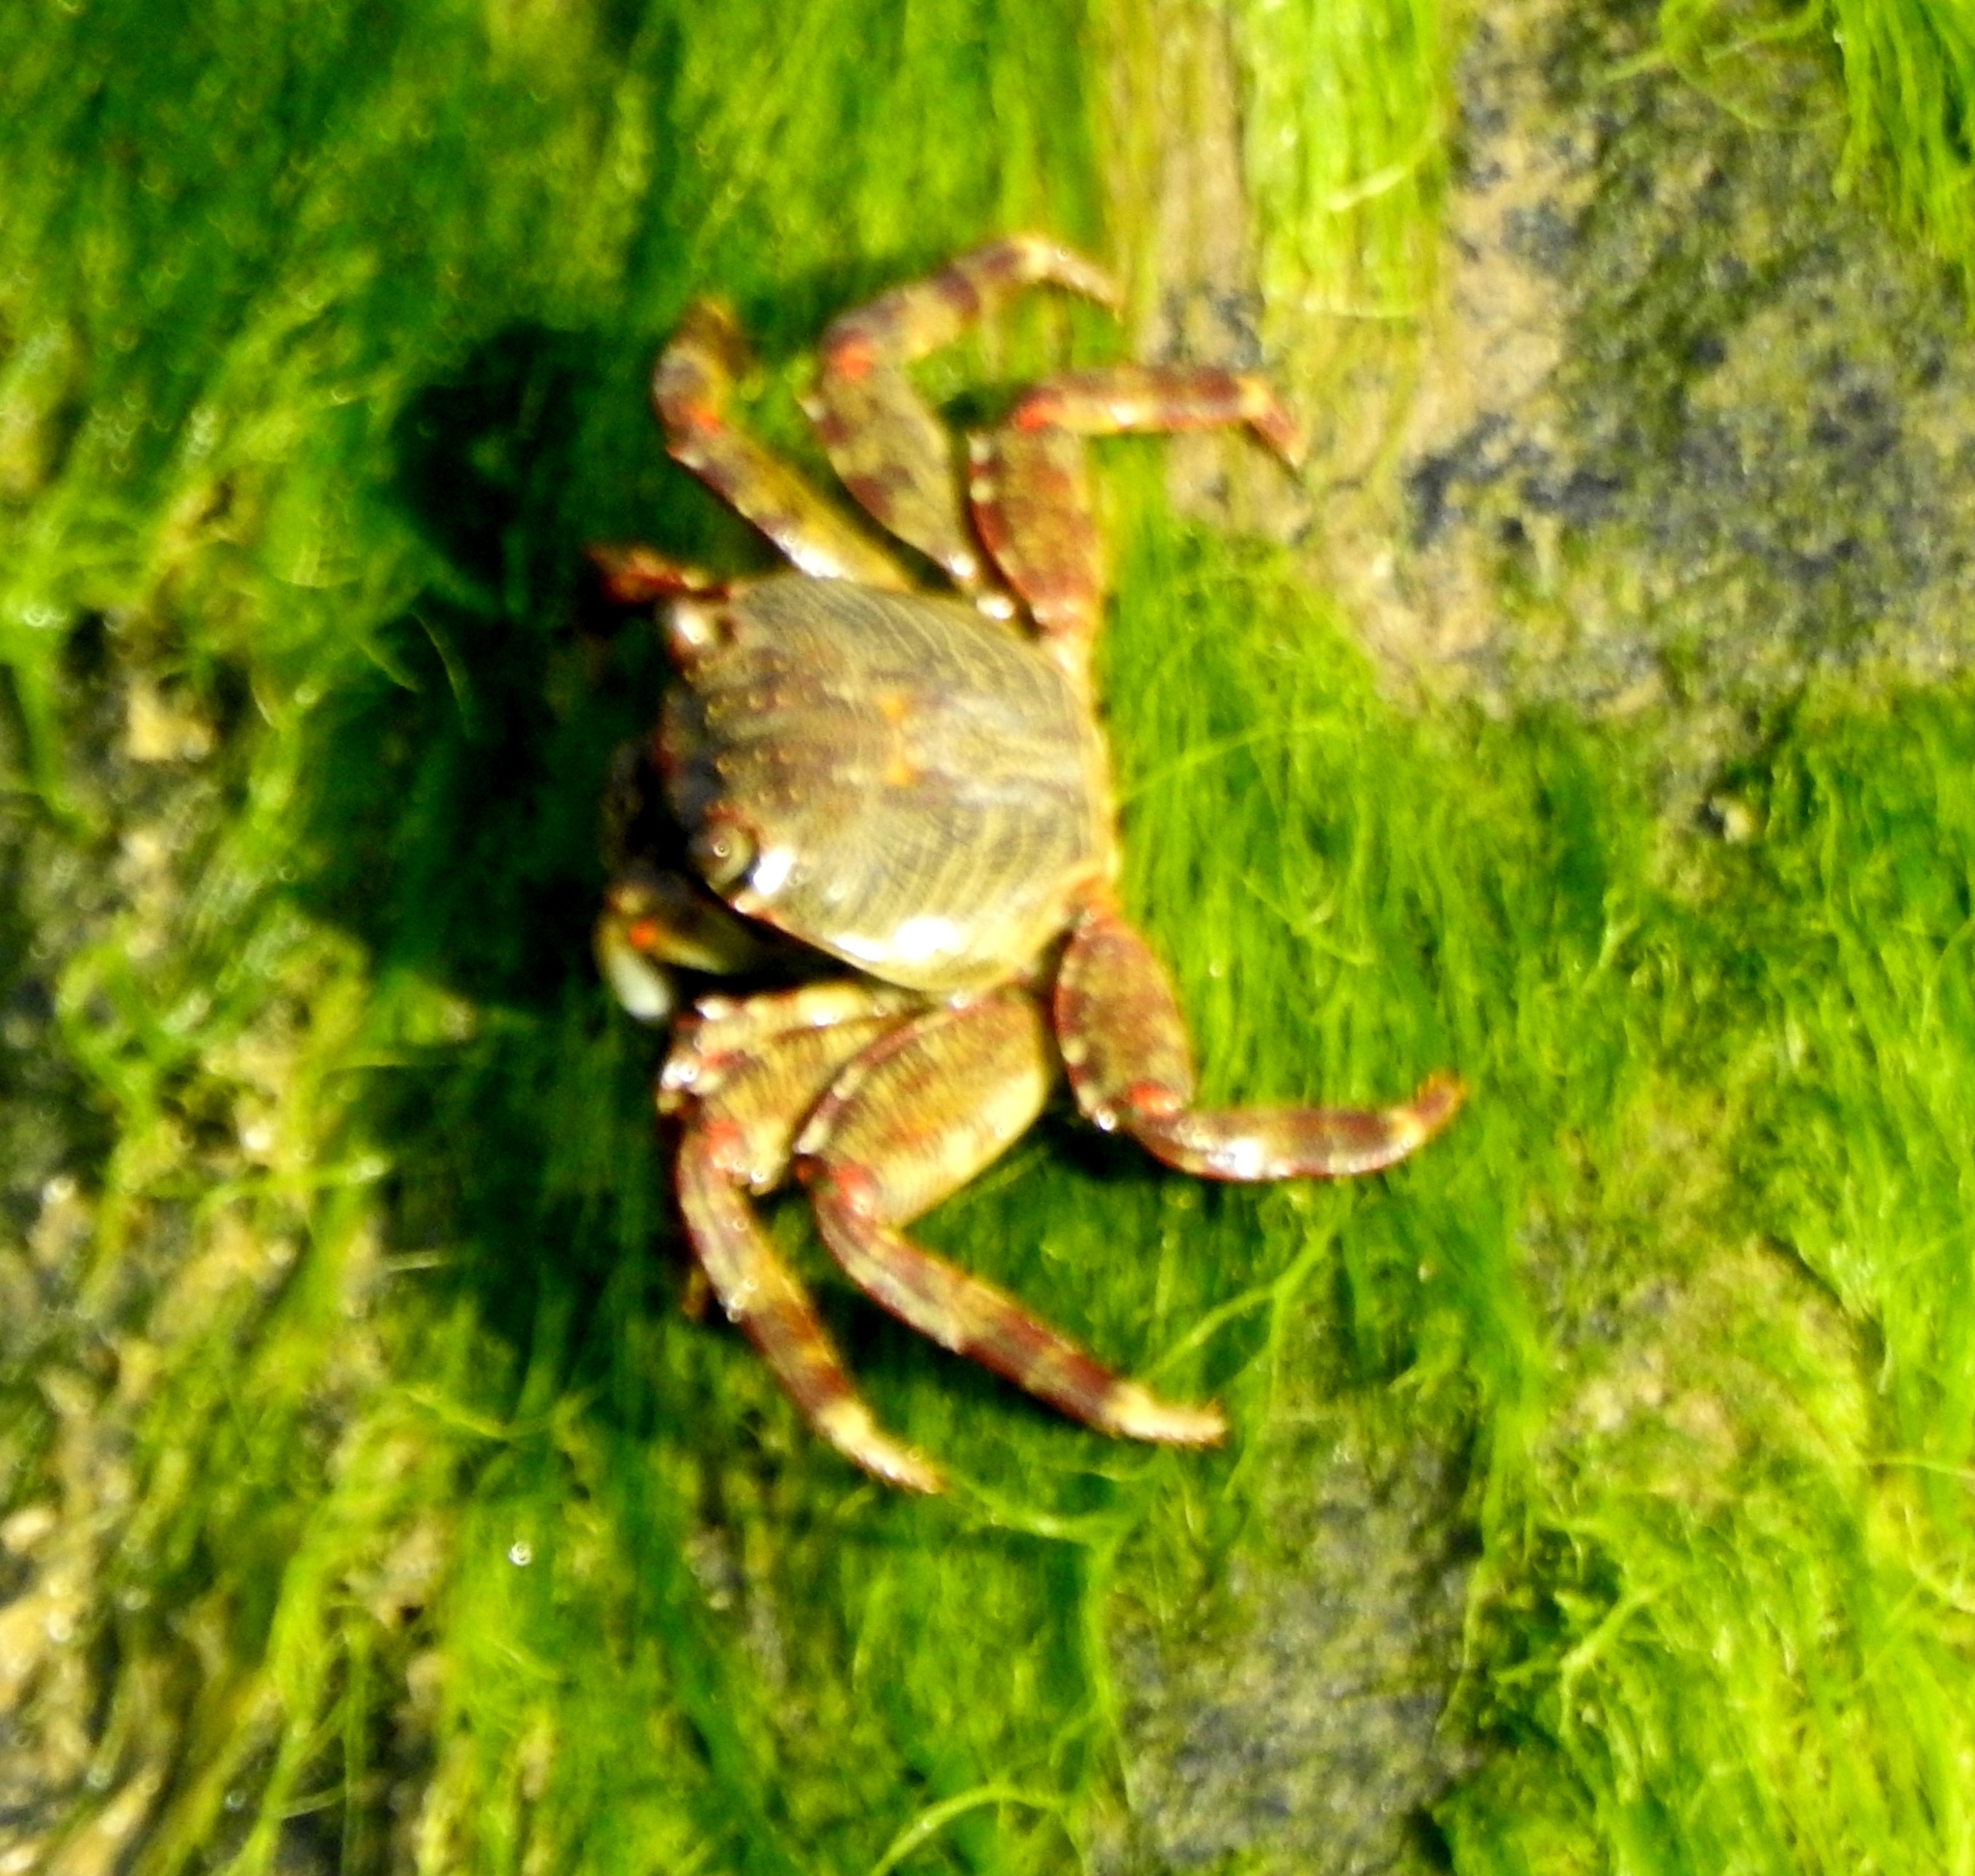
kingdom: Animalia
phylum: Arthropoda
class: Malacostraca
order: Decapoda
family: Grapsidae
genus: Grapsus
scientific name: Grapsus albolineatus
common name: Mottled lightfoot crab
